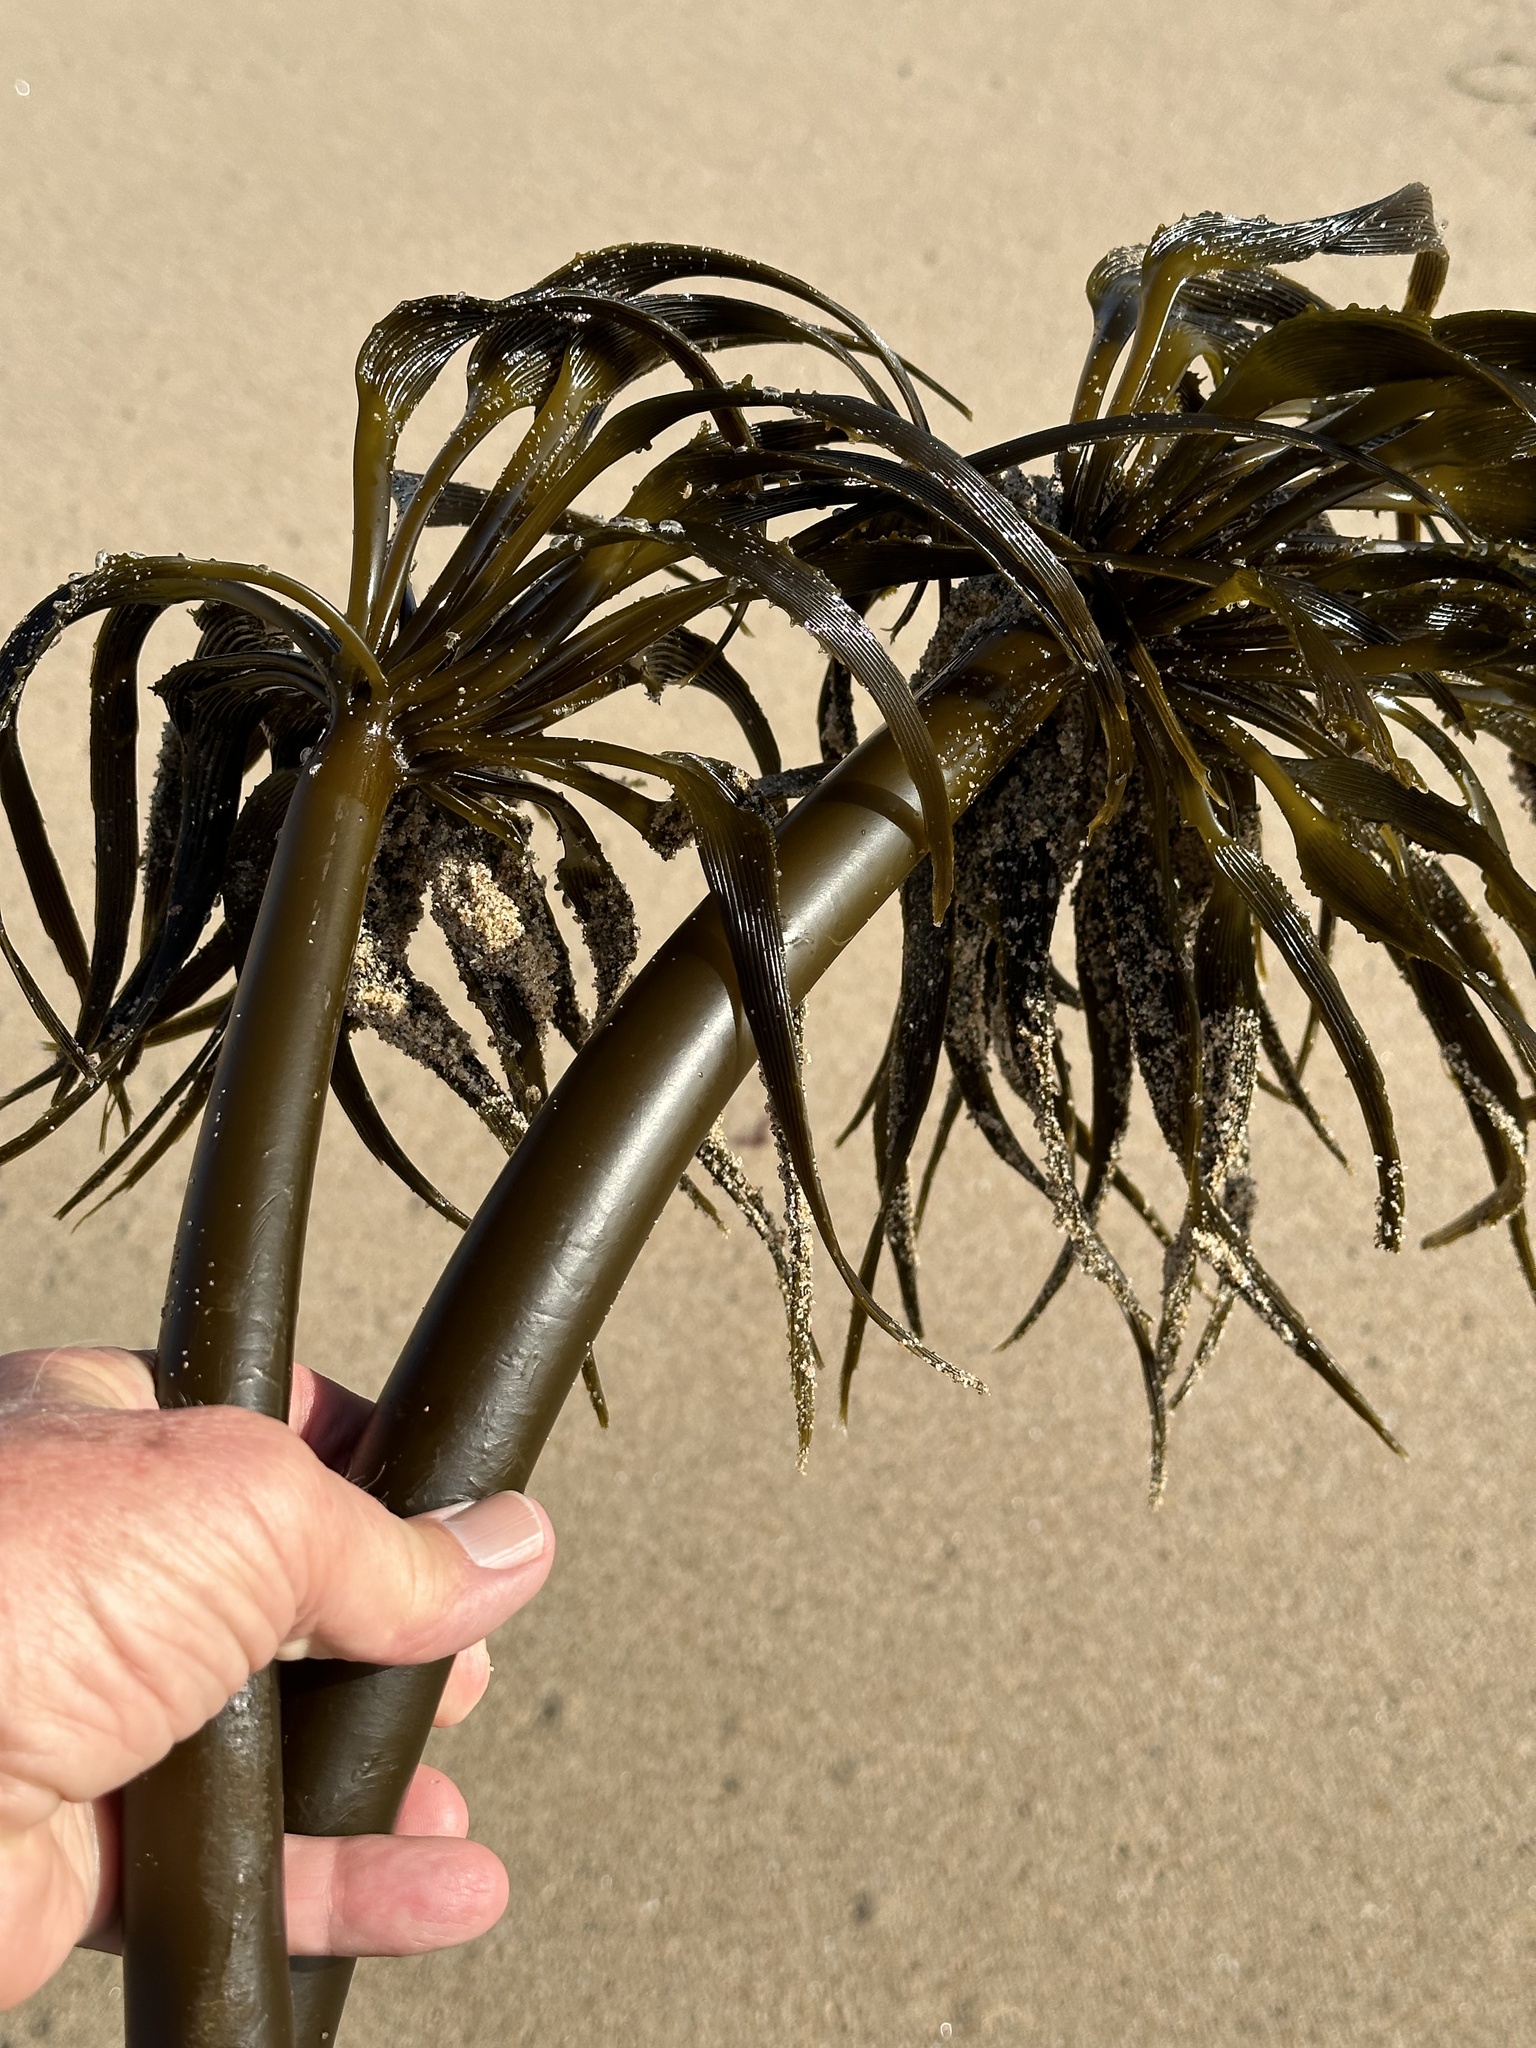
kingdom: Chromista
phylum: Ochrophyta
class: Phaeophyceae
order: Laminariales
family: Laminariaceae
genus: Postelsia
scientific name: Postelsia palmiformis
